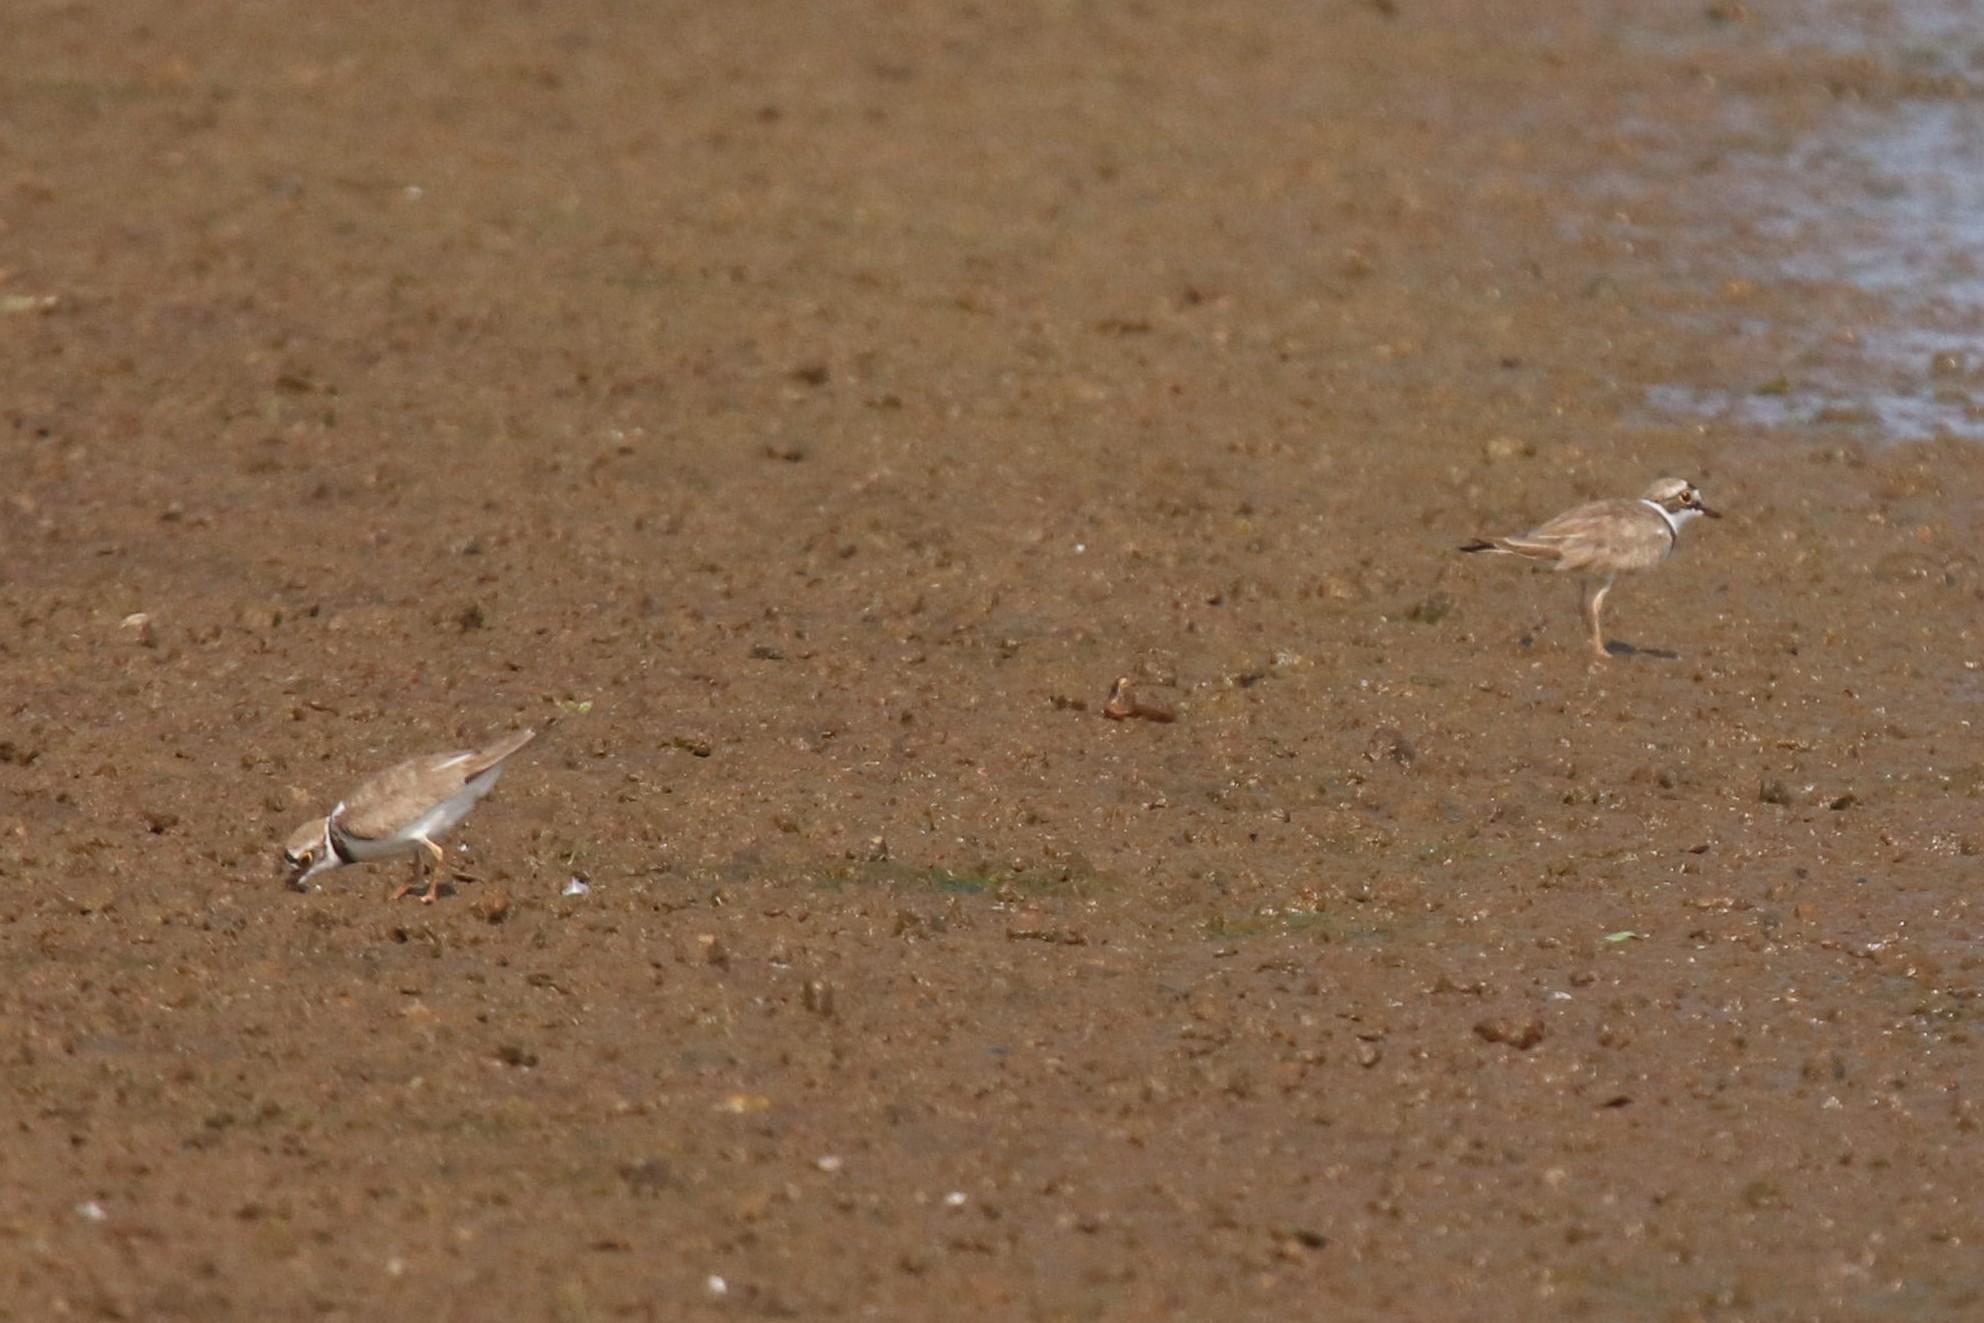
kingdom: Animalia
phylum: Chordata
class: Aves
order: Charadriiformes
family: Charadriidae
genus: Charadrius
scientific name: Charadrius dubius
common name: Little ringed plover
